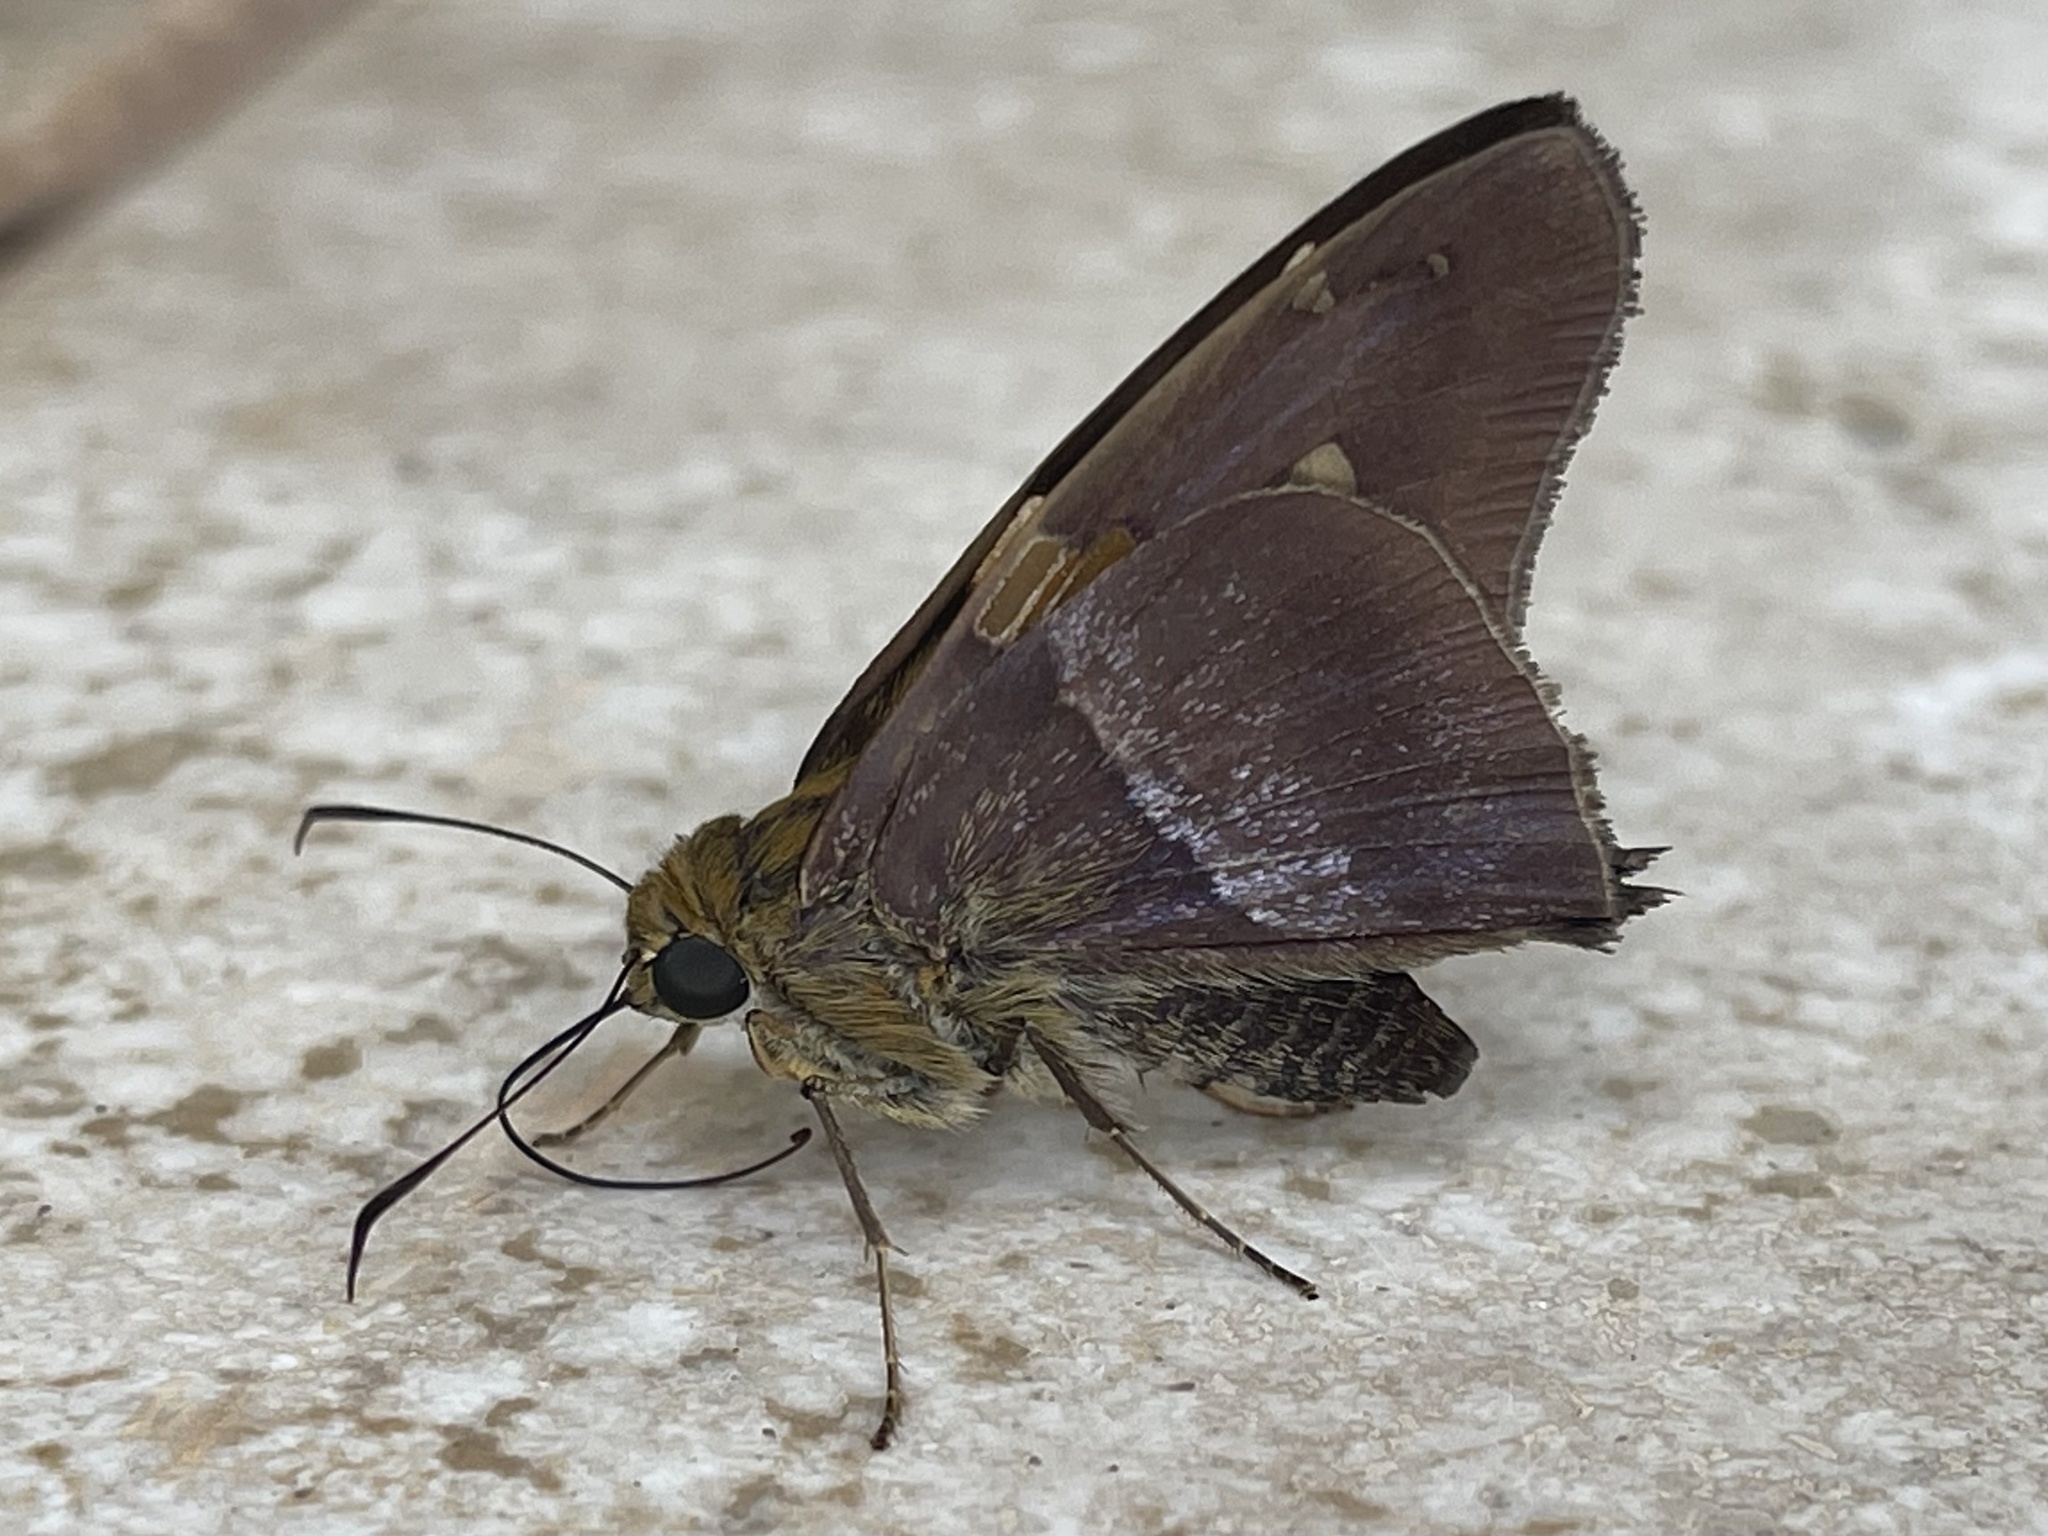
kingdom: Animalia
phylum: Arthropoda
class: Insecta
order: Lepidoptera
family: Hesperiidae
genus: Aguna
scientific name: Aguna asander
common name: Gold-spotted aguna
